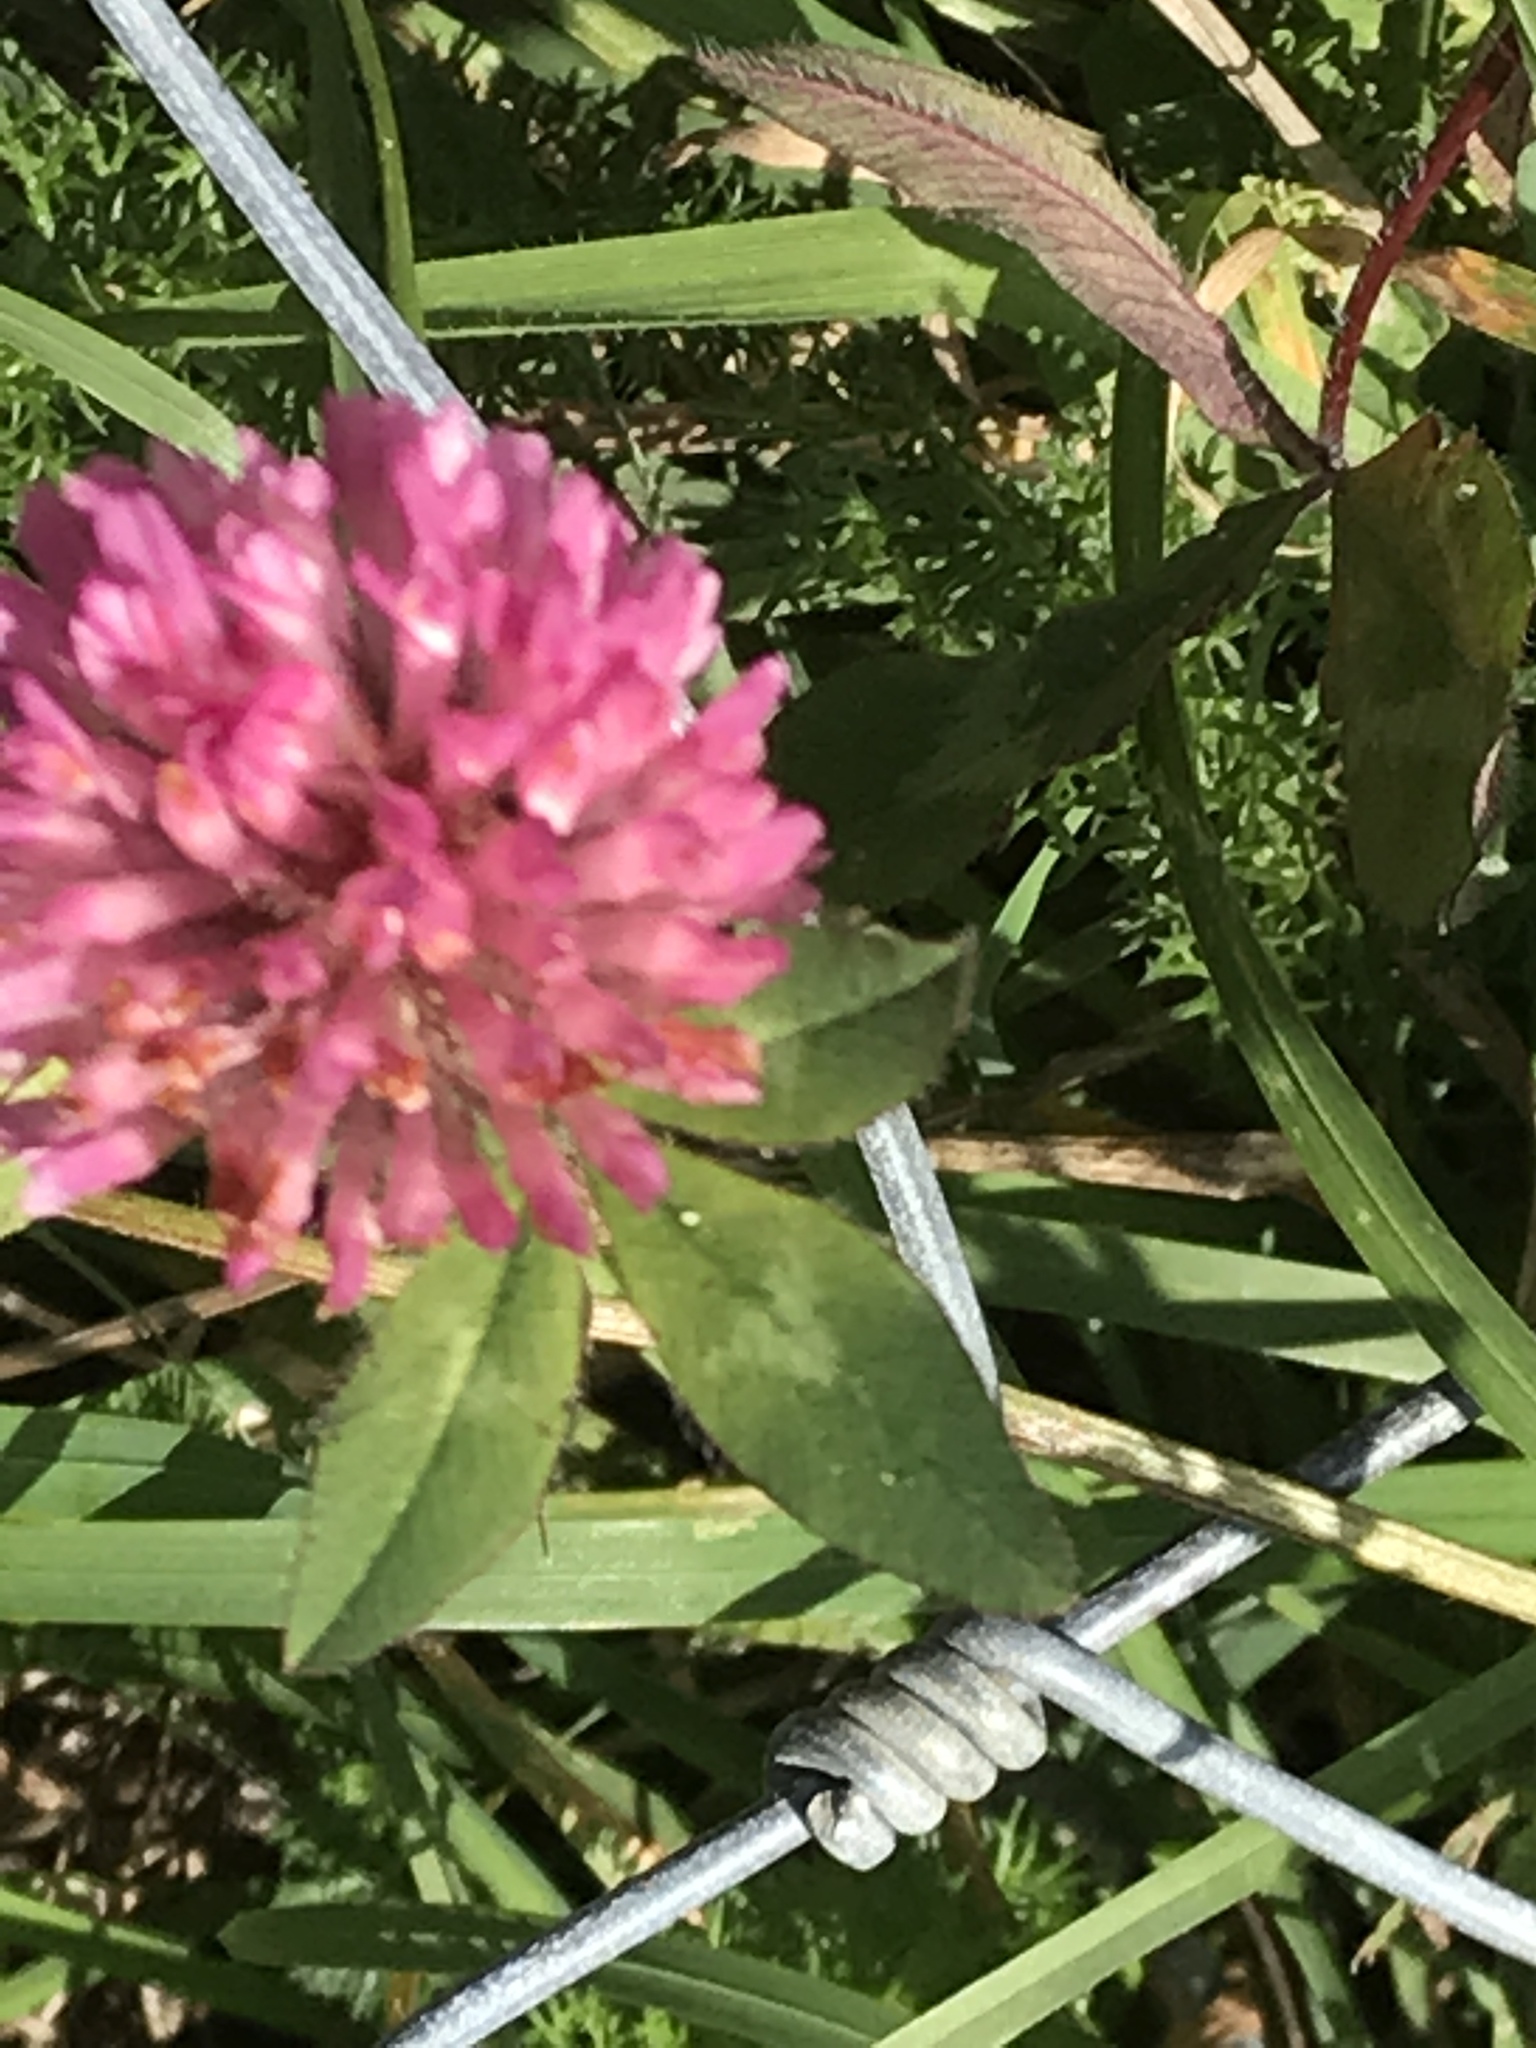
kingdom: Plantae
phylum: Tracheophyta
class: Magnoliopsida
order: Fabales
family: Fabaceae
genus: Trifolium
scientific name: Trifolium pratense
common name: Red clover
